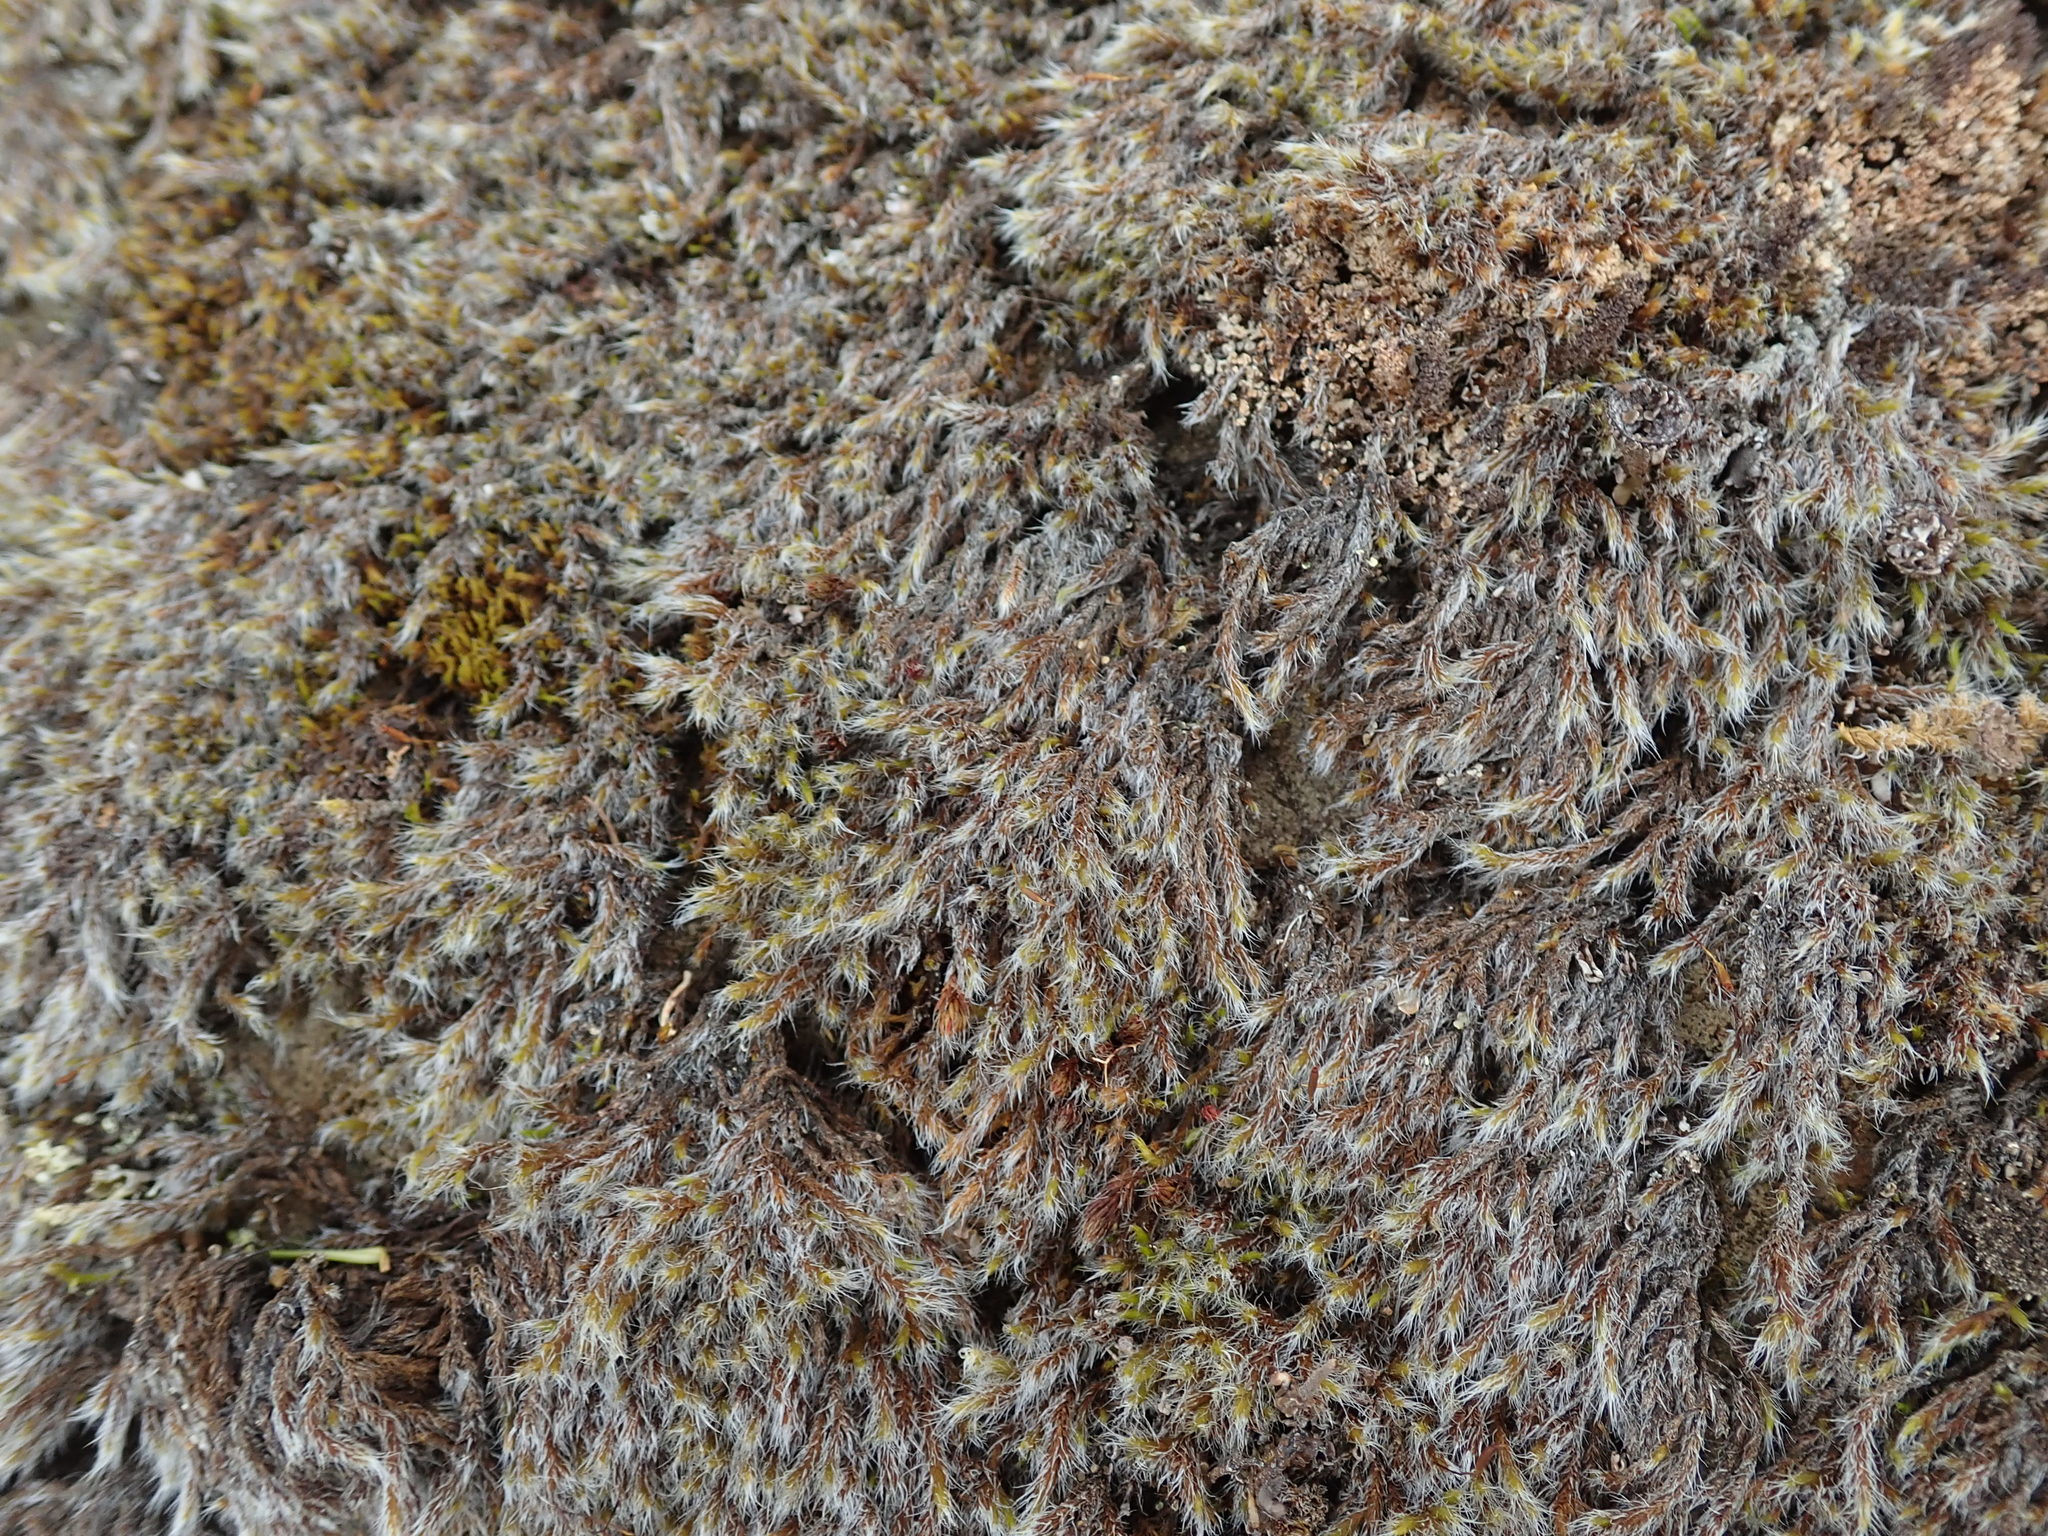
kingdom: Plantae
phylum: Bryophyta
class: Bryopsida
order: Grimmiales
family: Grimmiaceae
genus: Racomitrium
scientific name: Racomitrium lanuginosum
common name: Hoary rock moss
